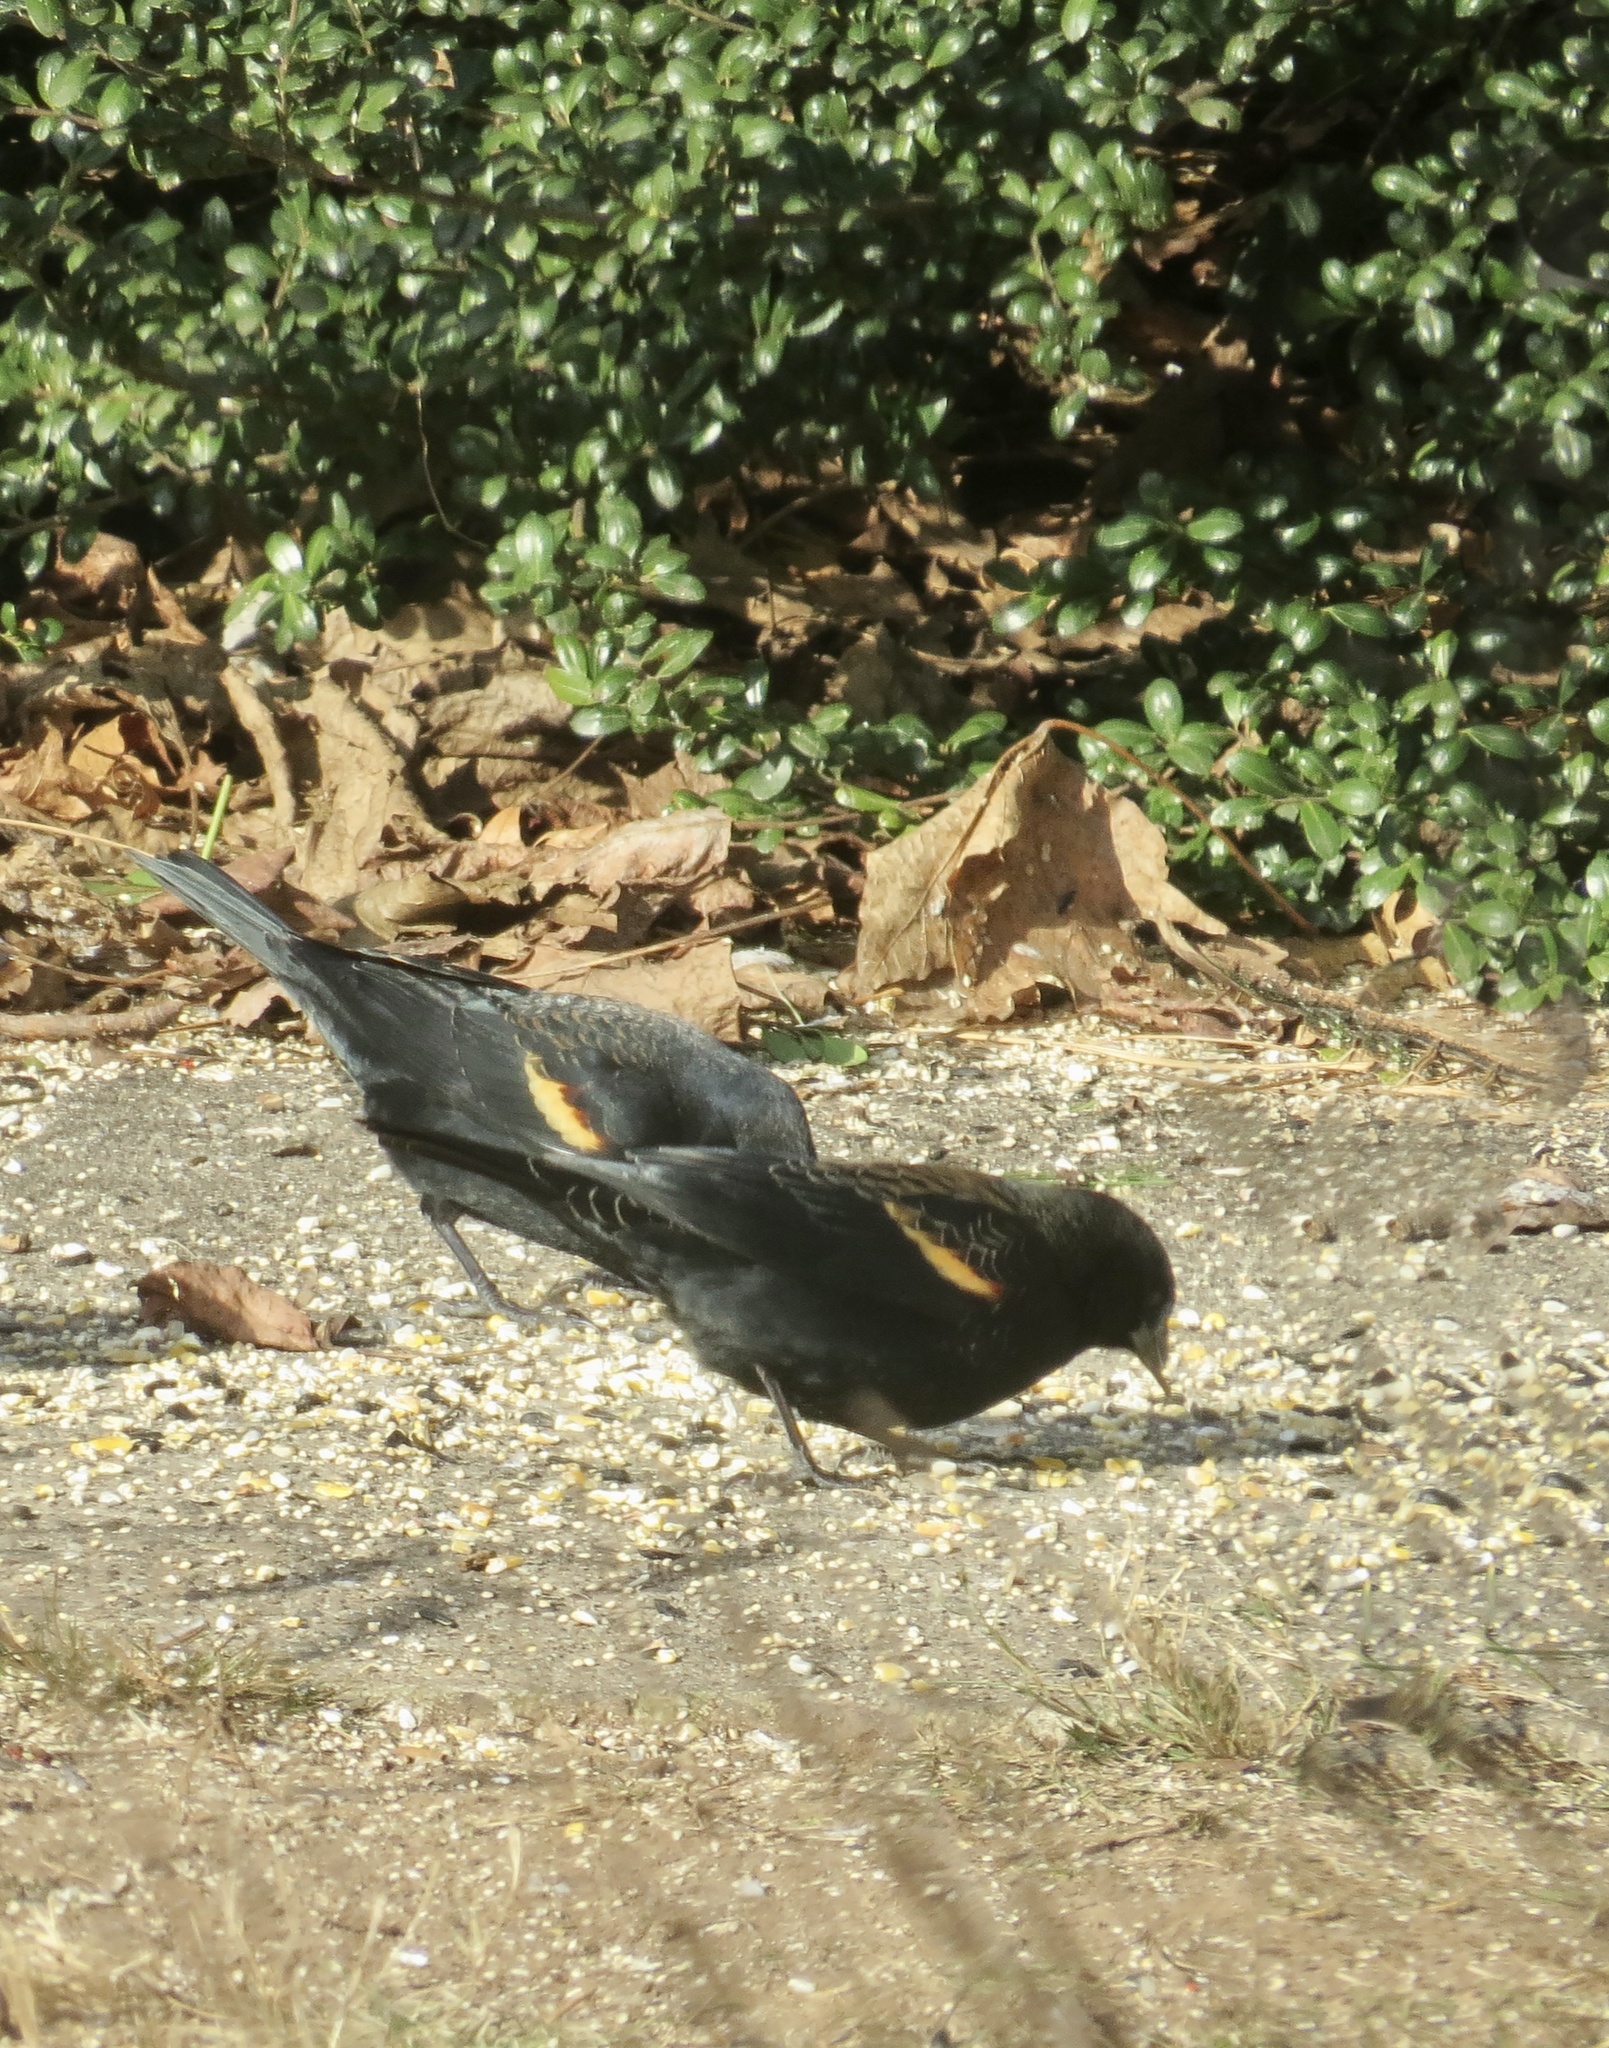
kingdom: Animalia
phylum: Chordata
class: Aves
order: Passeriformes
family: Icteridae
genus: Agelaius
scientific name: Agelaius phoeniceus
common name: Red-winged blackbird
